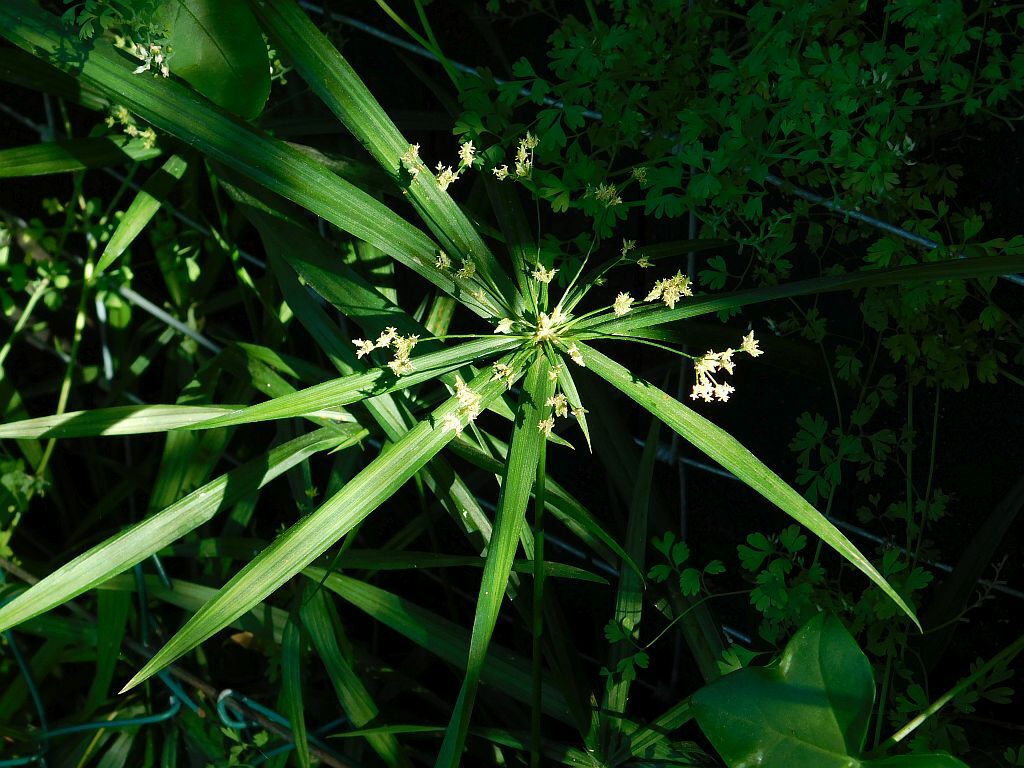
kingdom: Plantae
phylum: Tracheophyta
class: Liliopsida
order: Poales
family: Cyperaceae
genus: Cyperus
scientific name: Cyperus albostriatus
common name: Dwarf umbrella-grass
